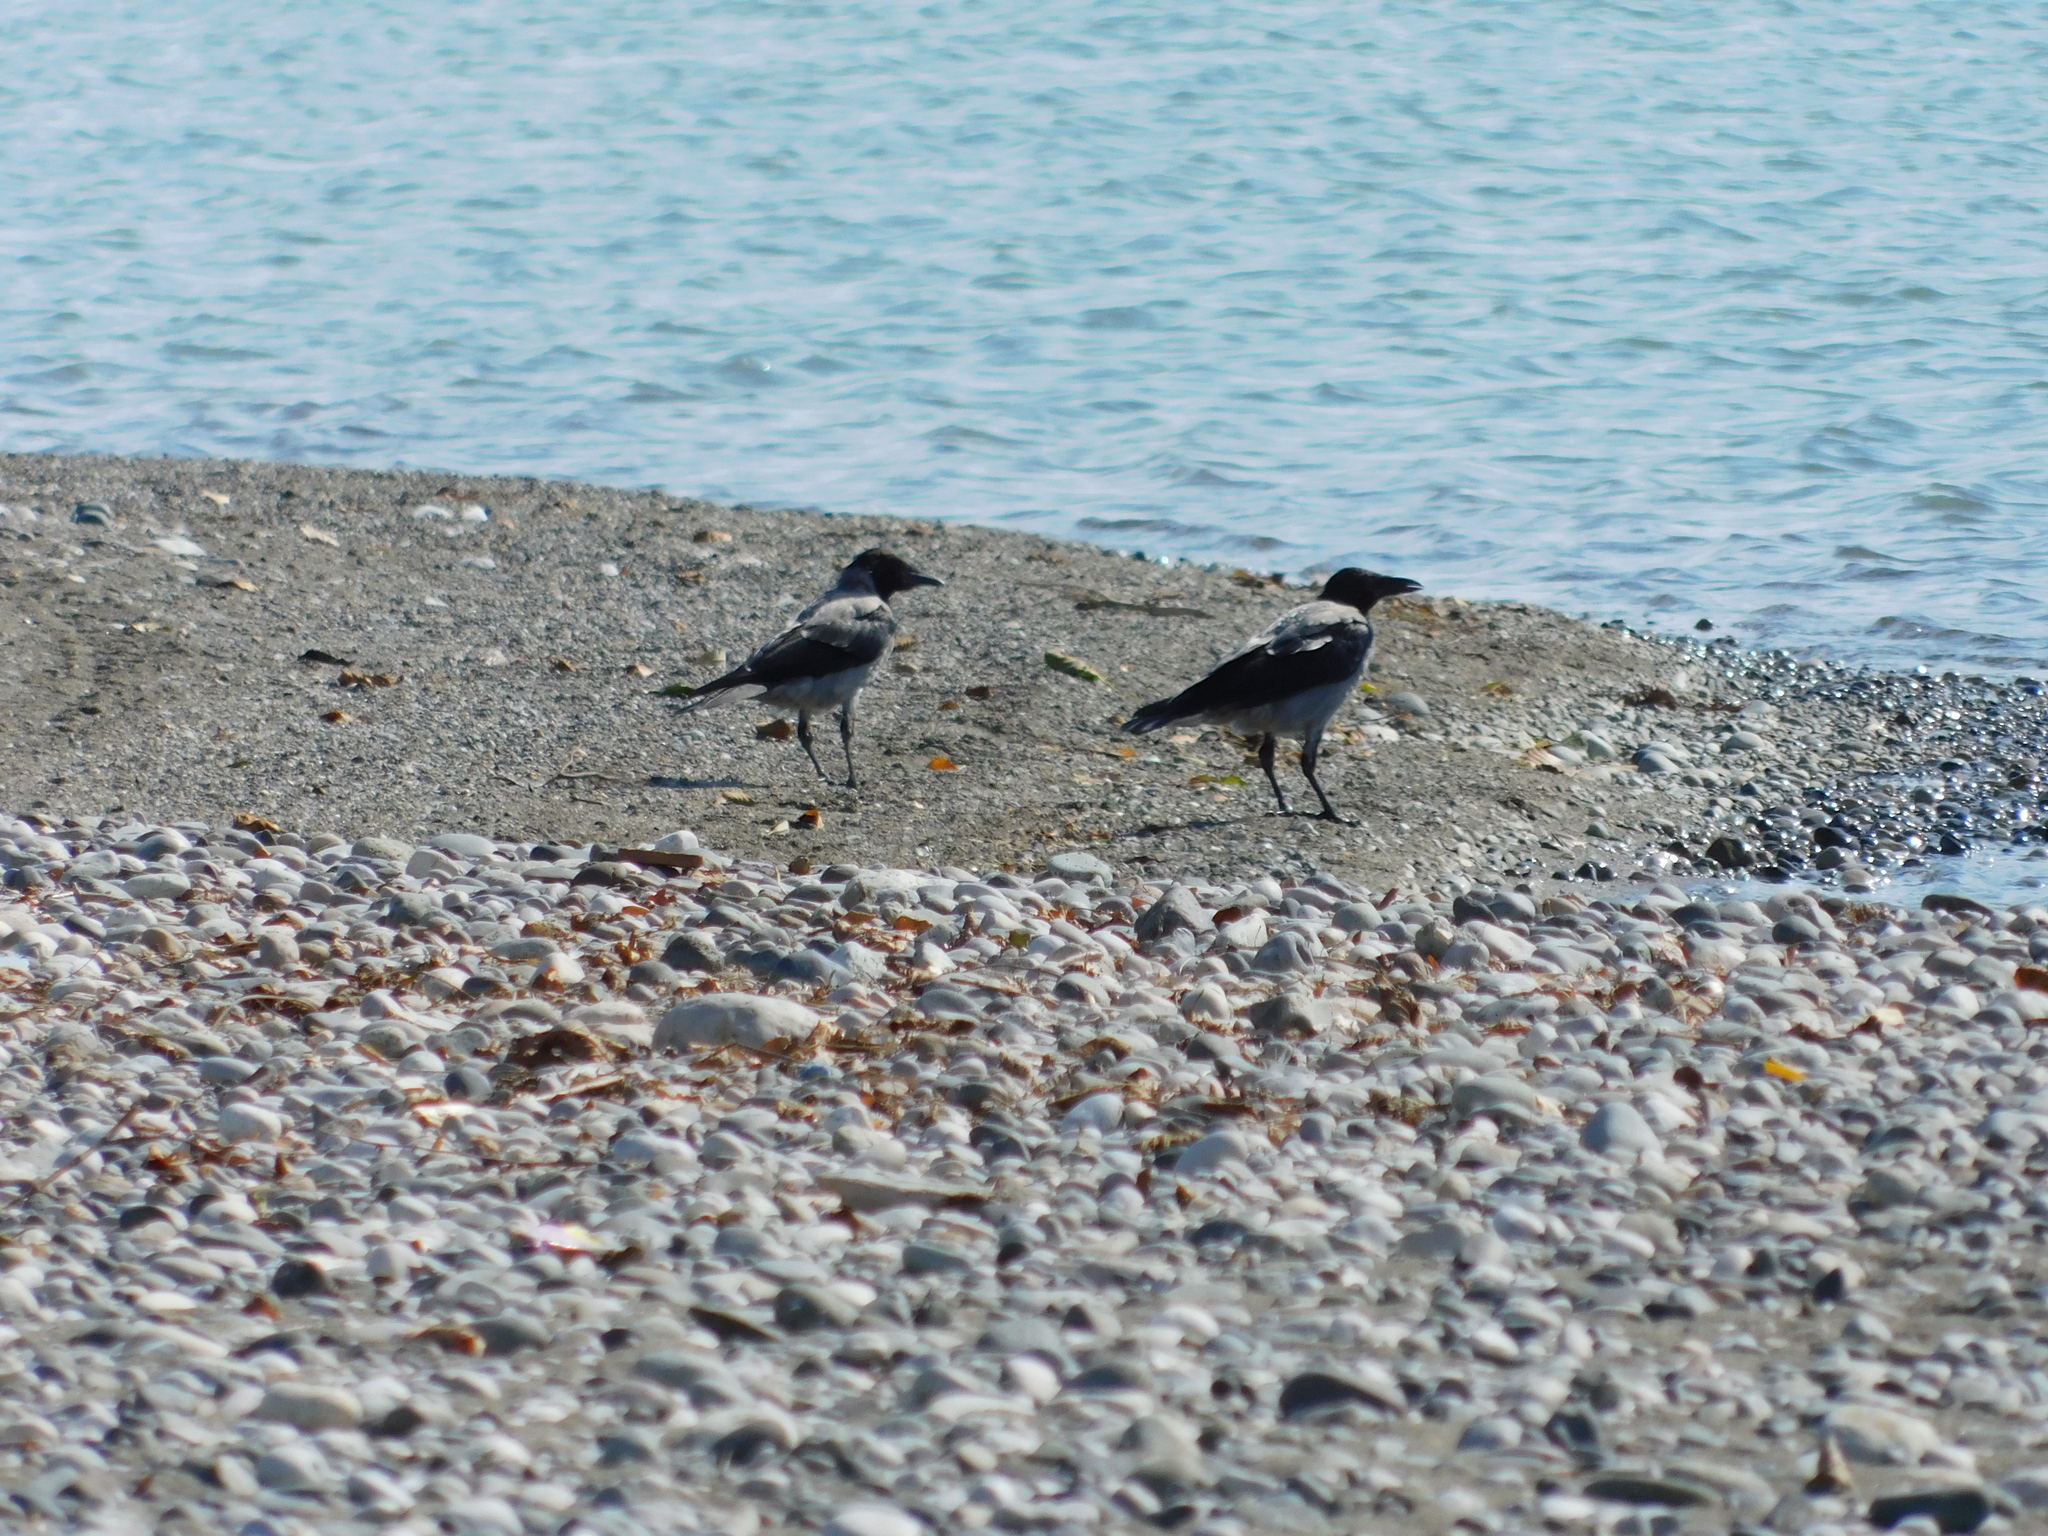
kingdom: Animalia
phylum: Chordata
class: Aves
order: Passeriformes
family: Corvidae
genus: Corvus
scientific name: Corvus cornix
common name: Hooded crow
